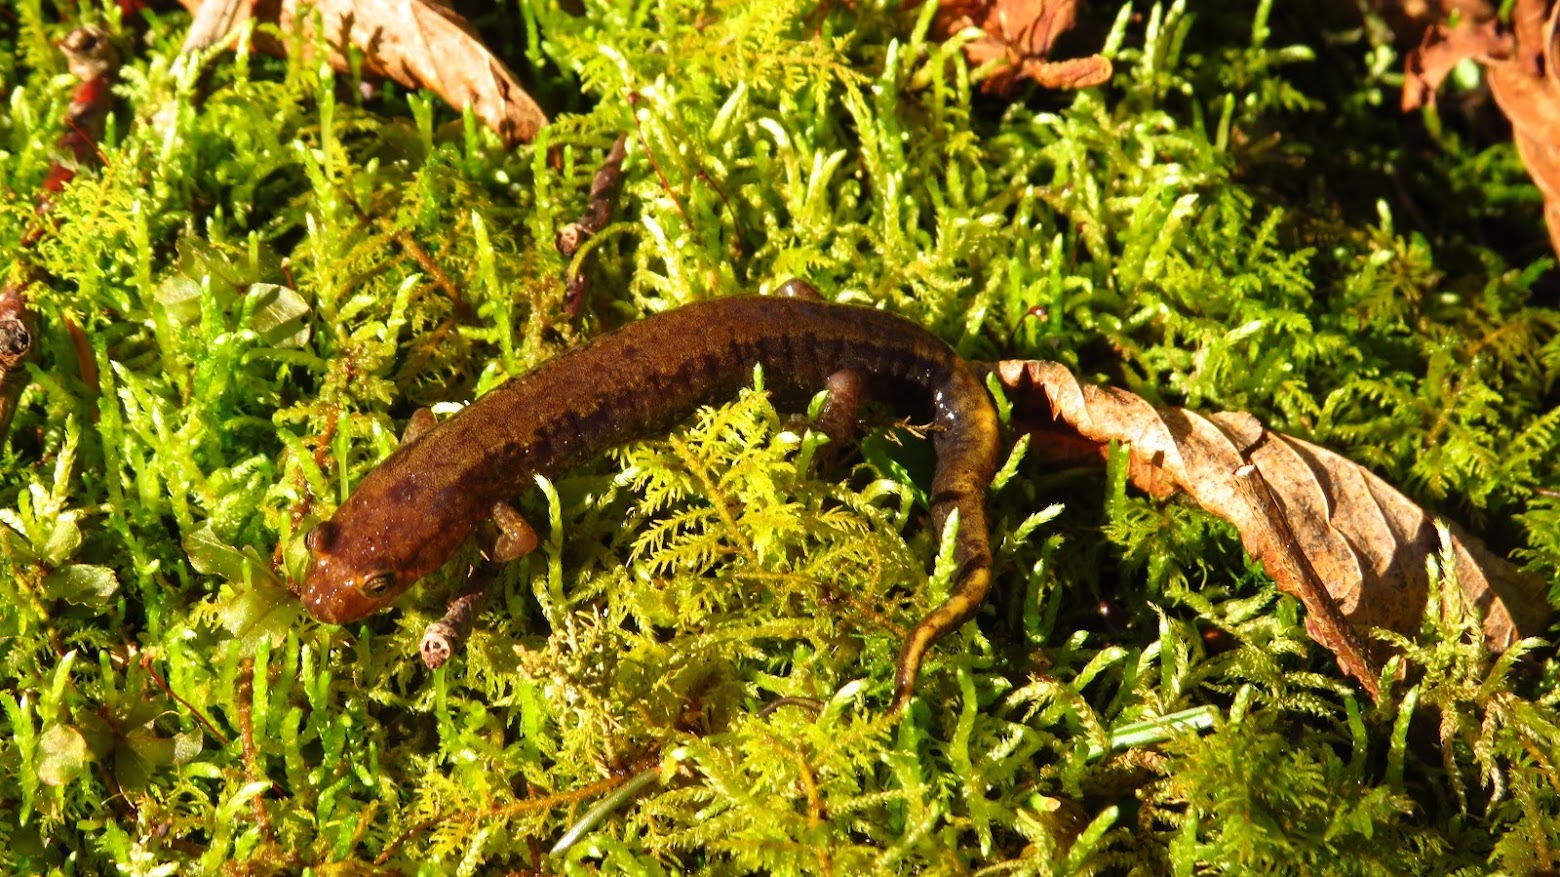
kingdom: Animalia
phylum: Chordata
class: Amphibia
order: Caudata
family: Plethodontidae
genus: Desmognathus
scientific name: Desmognathus adatsihi
